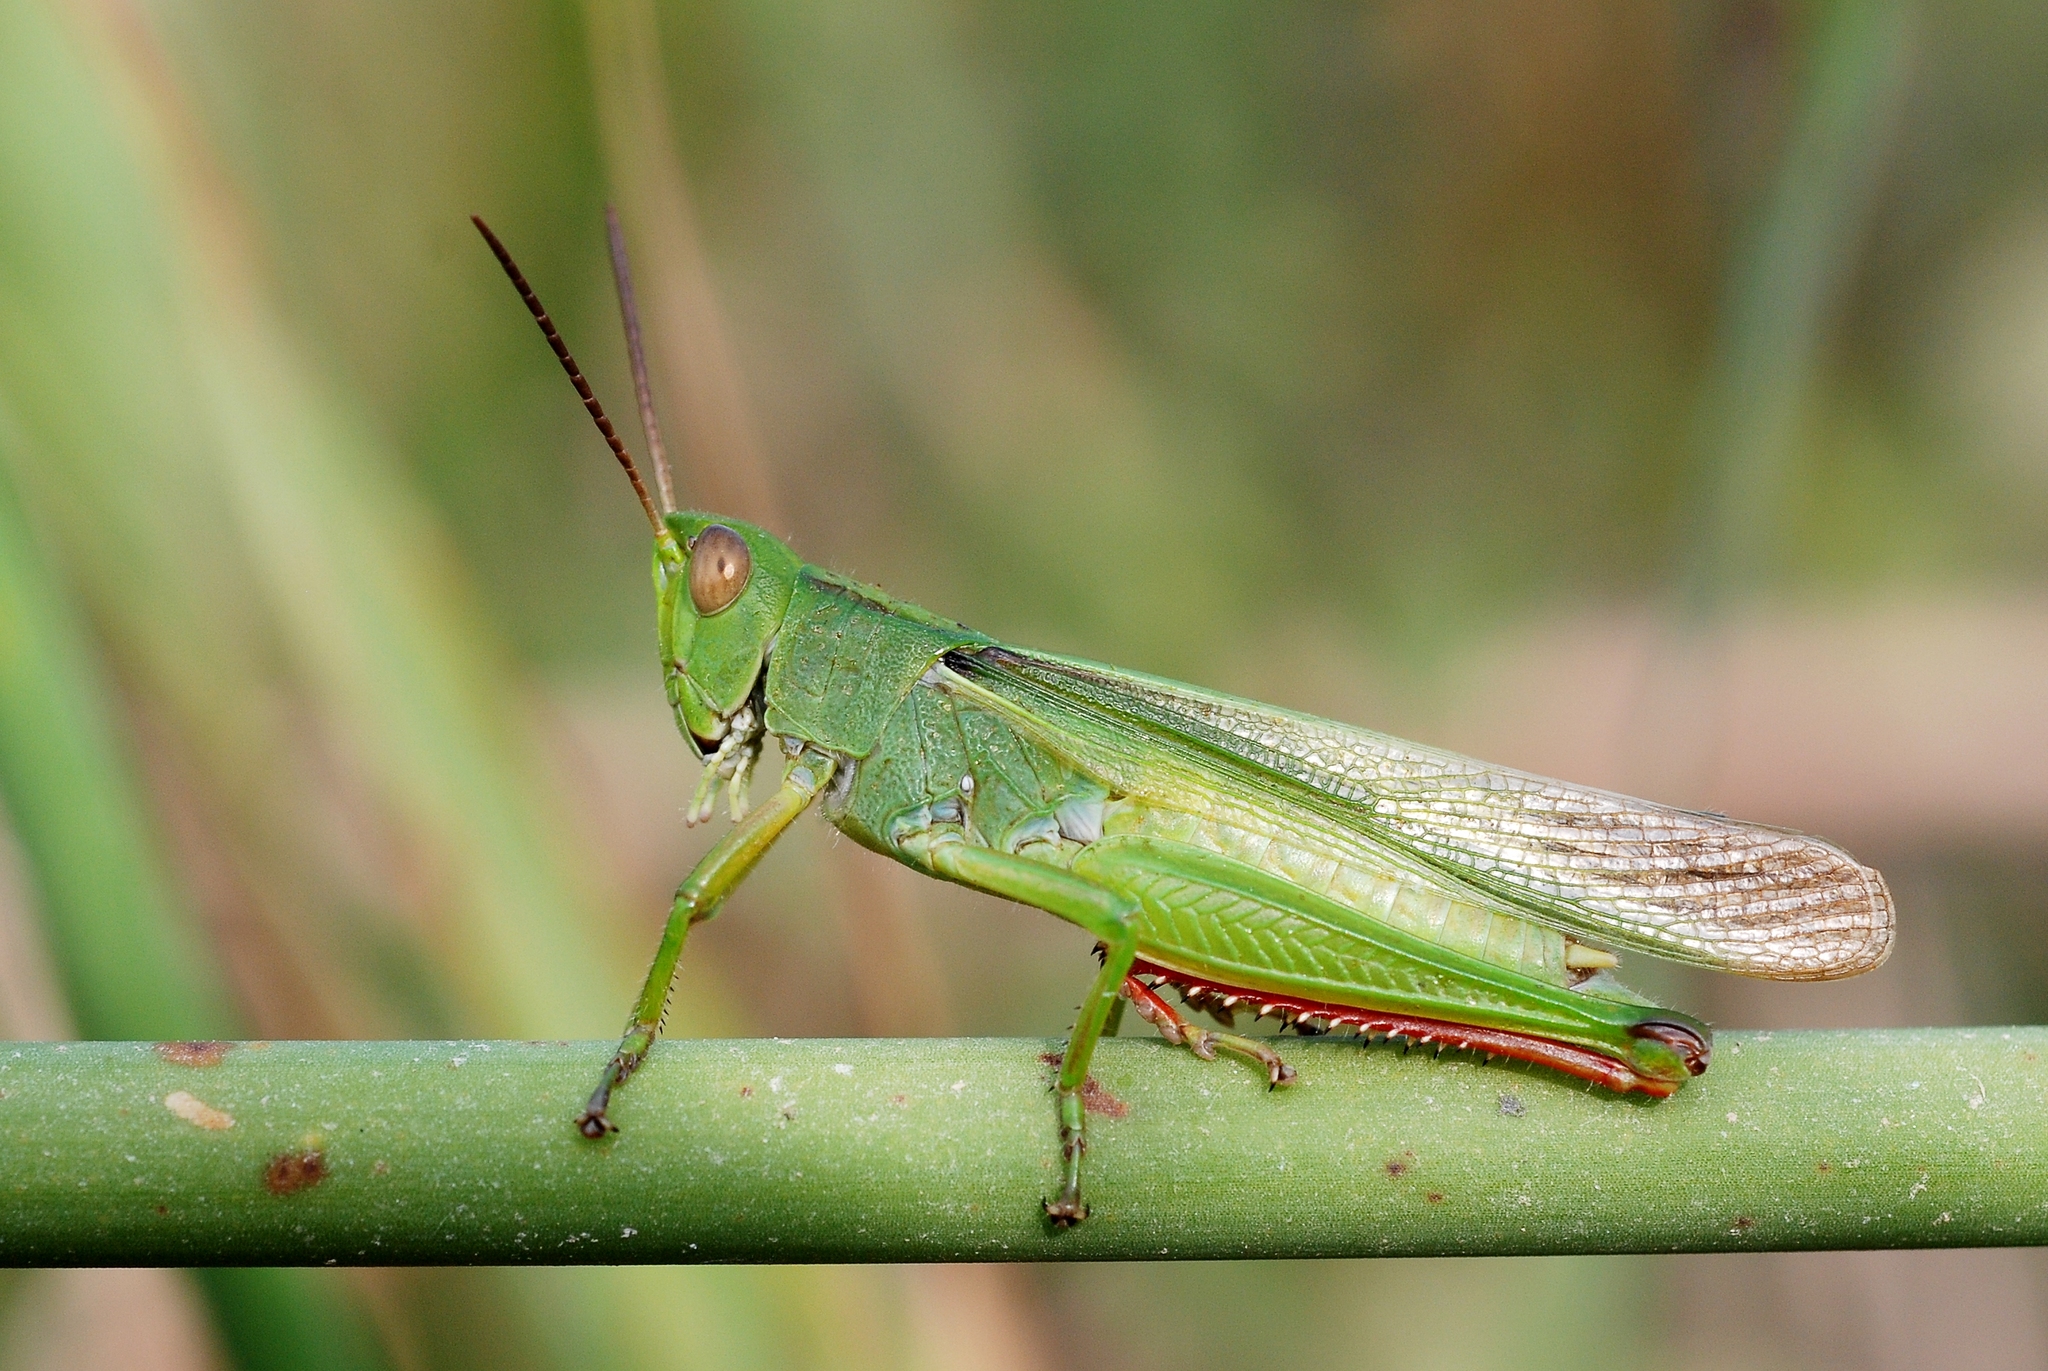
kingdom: Animalia
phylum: Arthropoda
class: Insecta
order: Orthoptera
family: Acrididae
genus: Paracinema
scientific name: Paracinema tricolor
